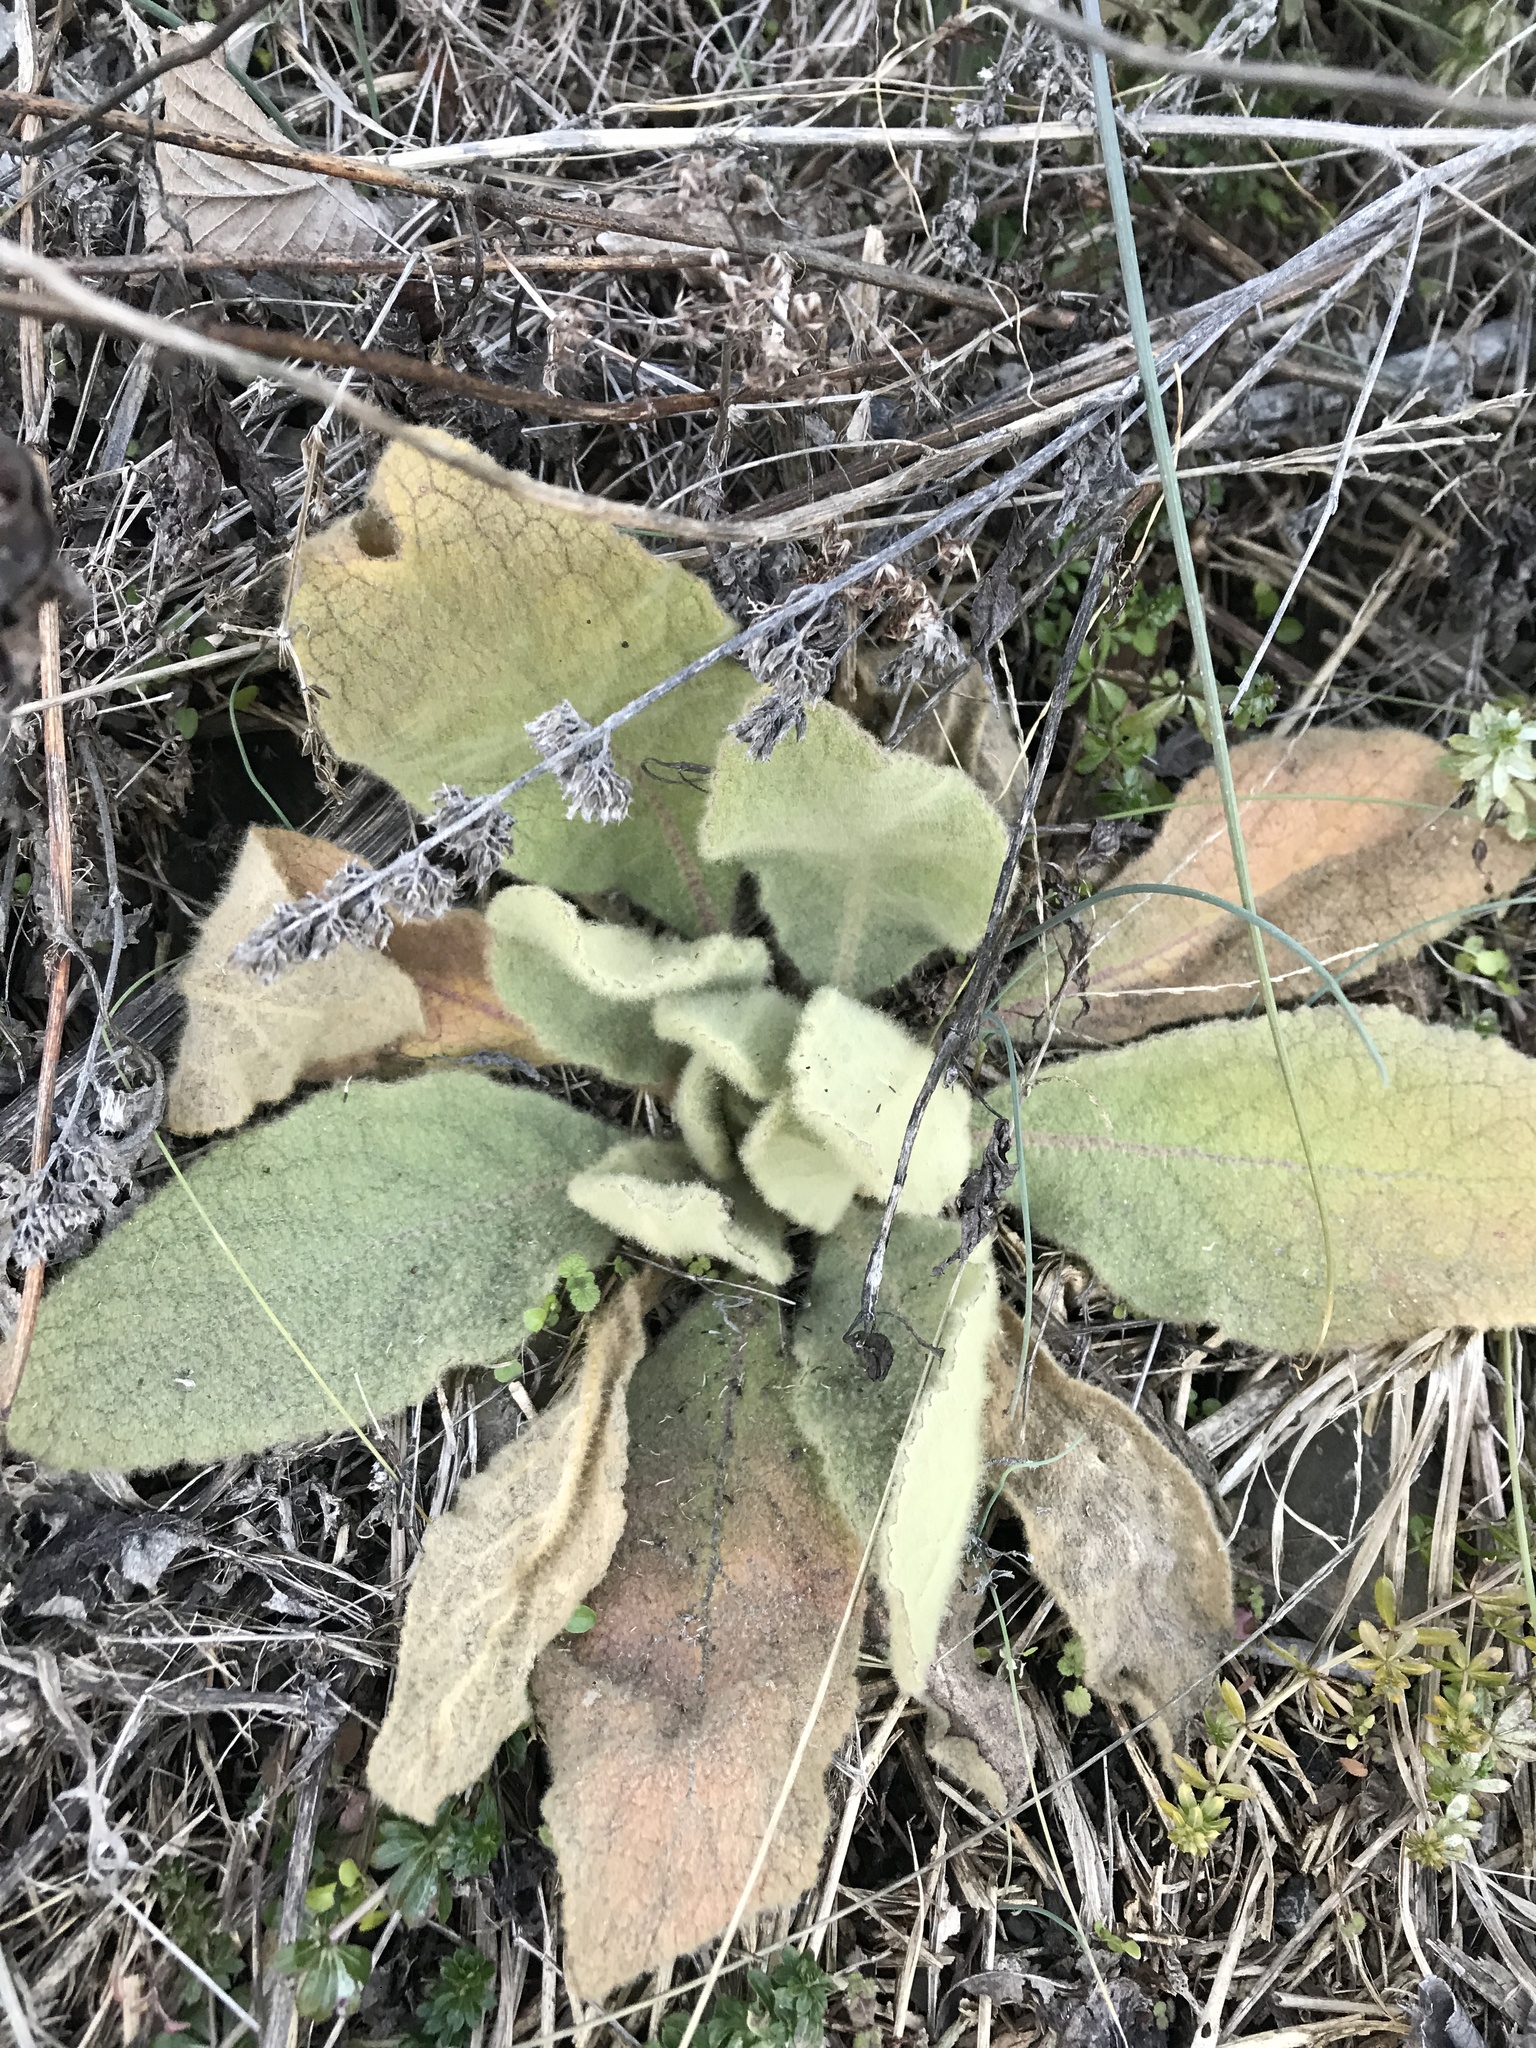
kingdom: Plantae
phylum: Tracheophyta
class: Magnoliopsida
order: Lamiales
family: Scrophulariaceae
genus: Verbascum
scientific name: Verbascum thapsus
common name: Common mullein
